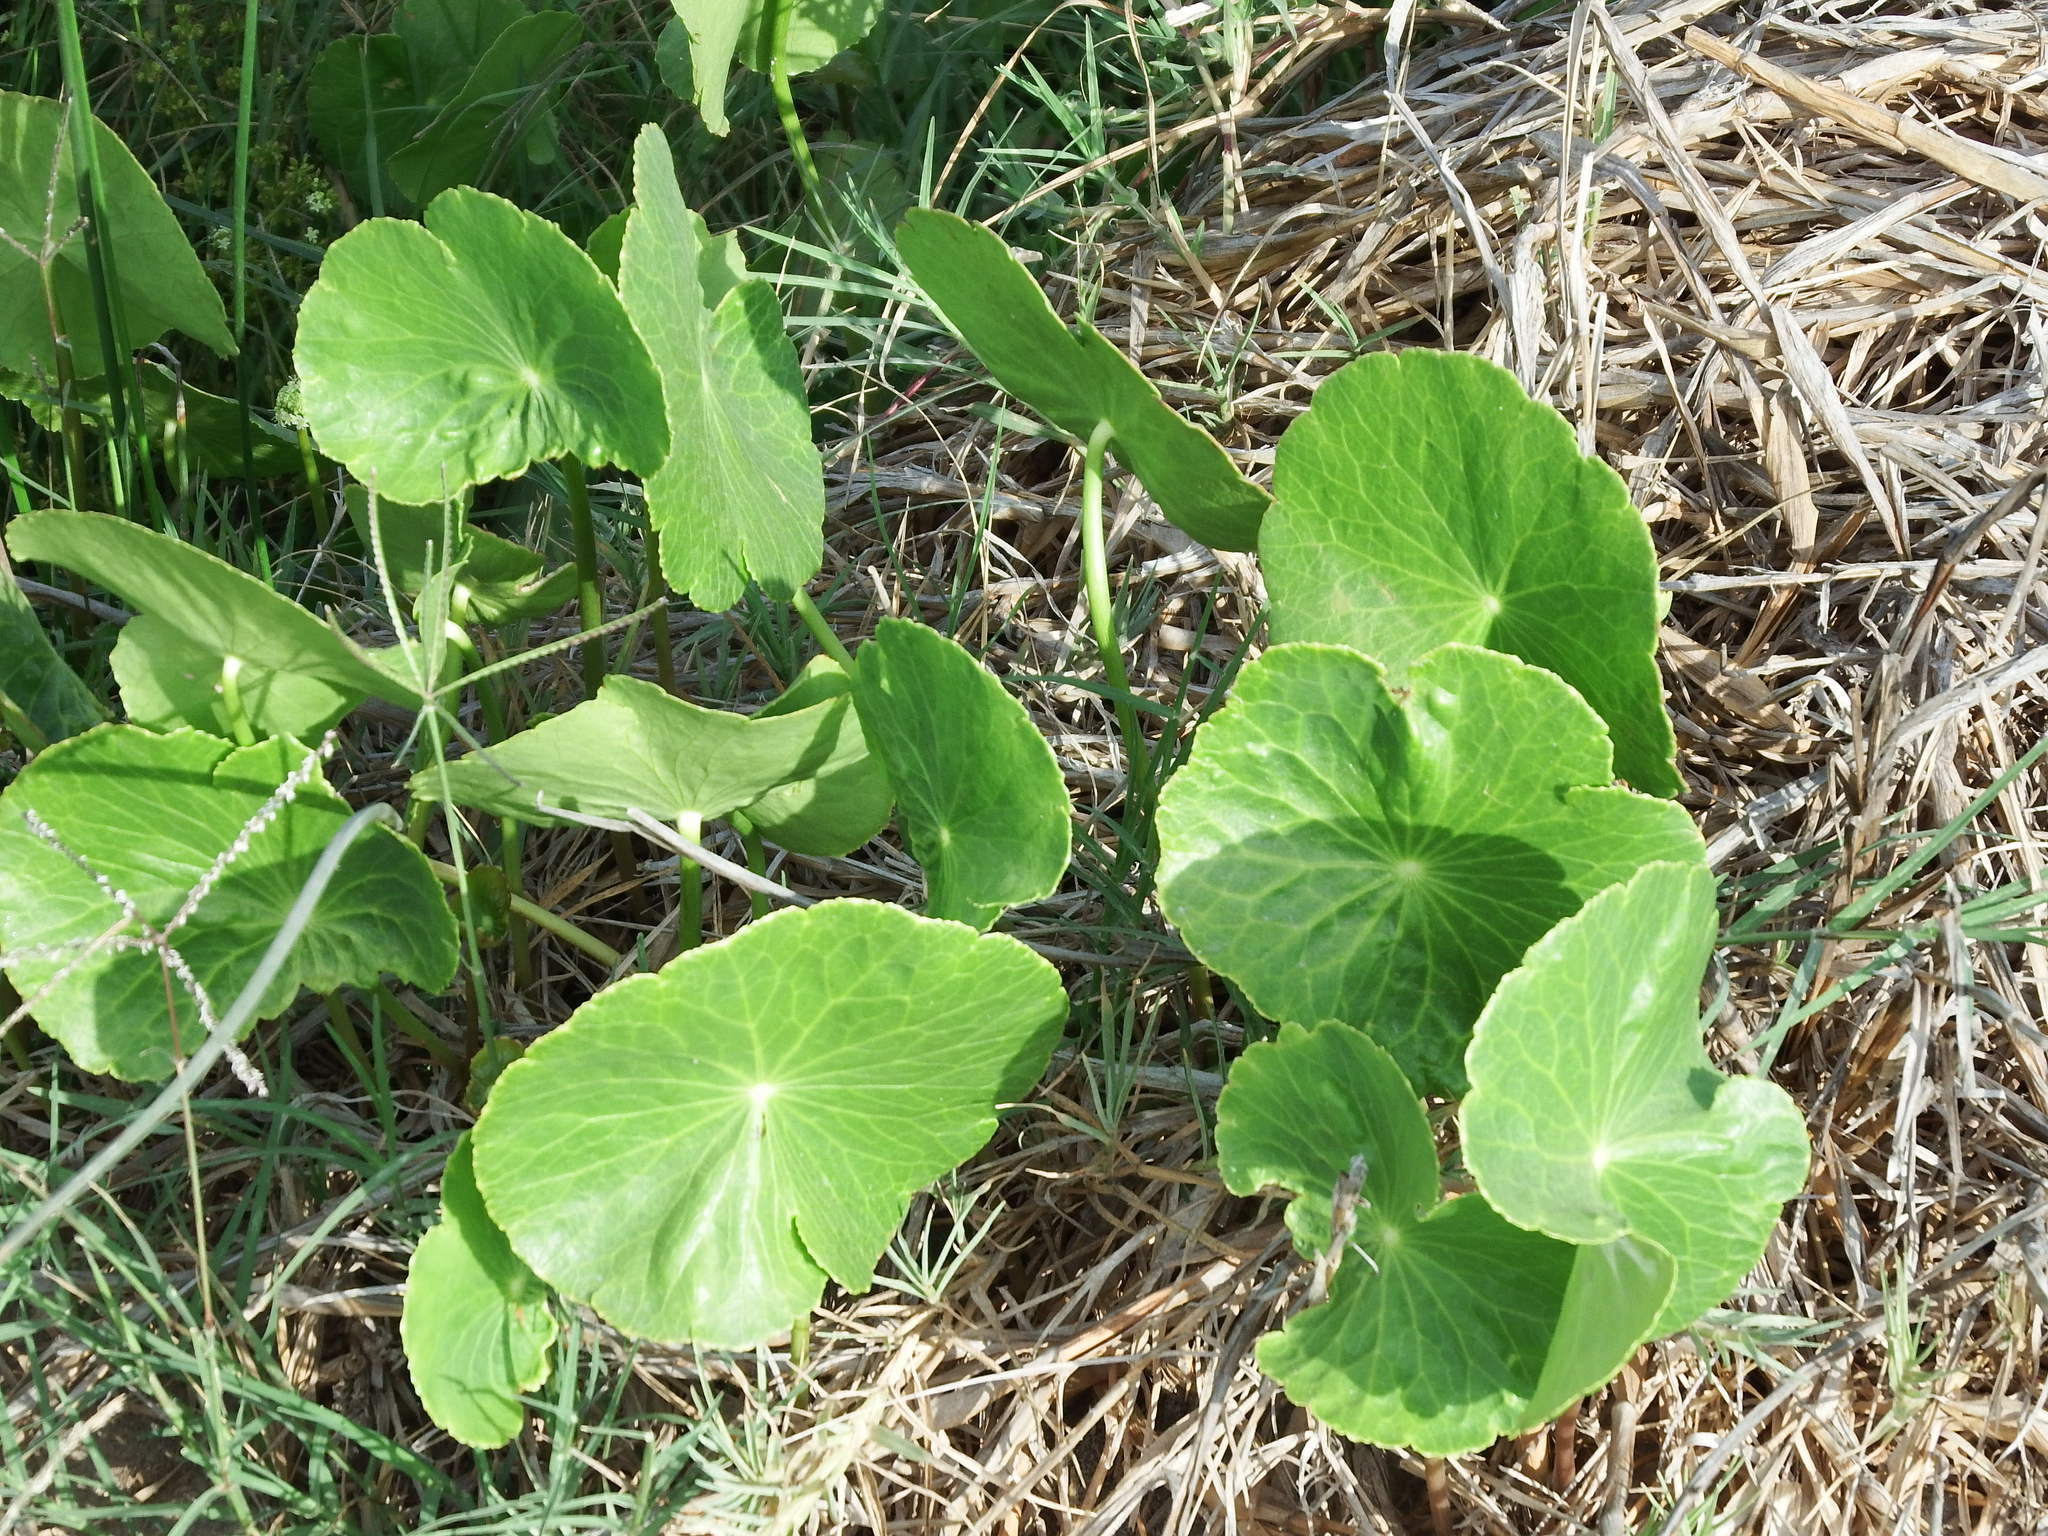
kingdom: Plantae
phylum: Tracheophyta
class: Magnoliopsida
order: Apiales
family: Araliaceae
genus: Hydrocotyle
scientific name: Hydrocotyle bonariensis
